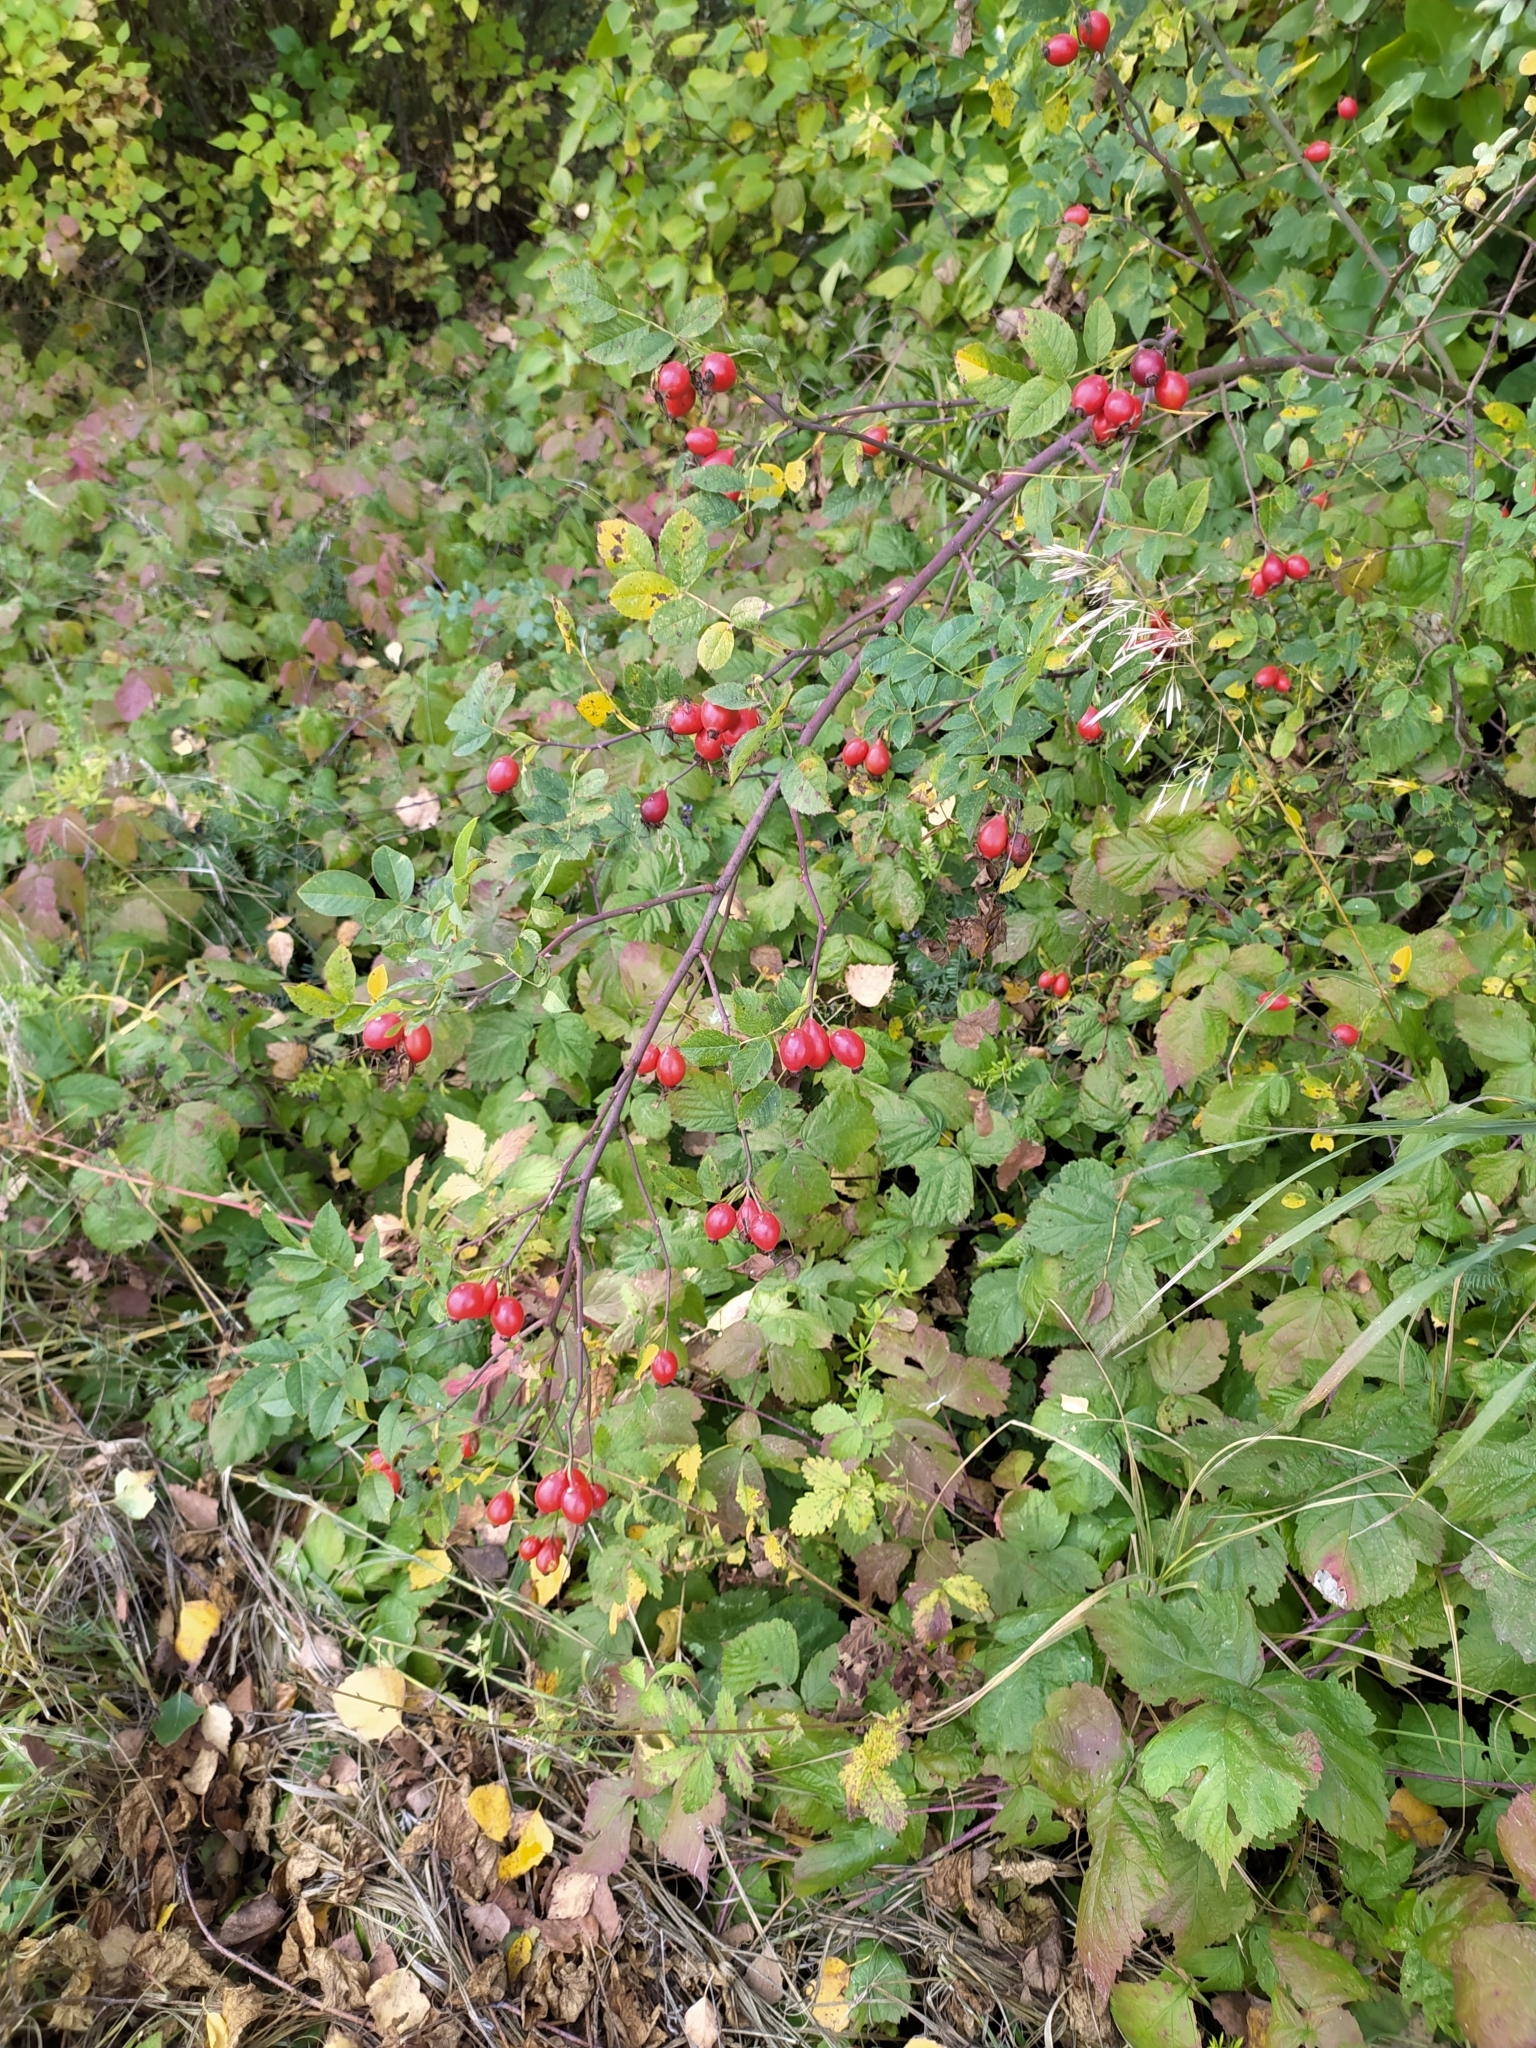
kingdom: Plantae
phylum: Tracheophyta
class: Magnoliopsida
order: Rosales
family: Rosaceae
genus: Rosa
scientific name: Rosa
